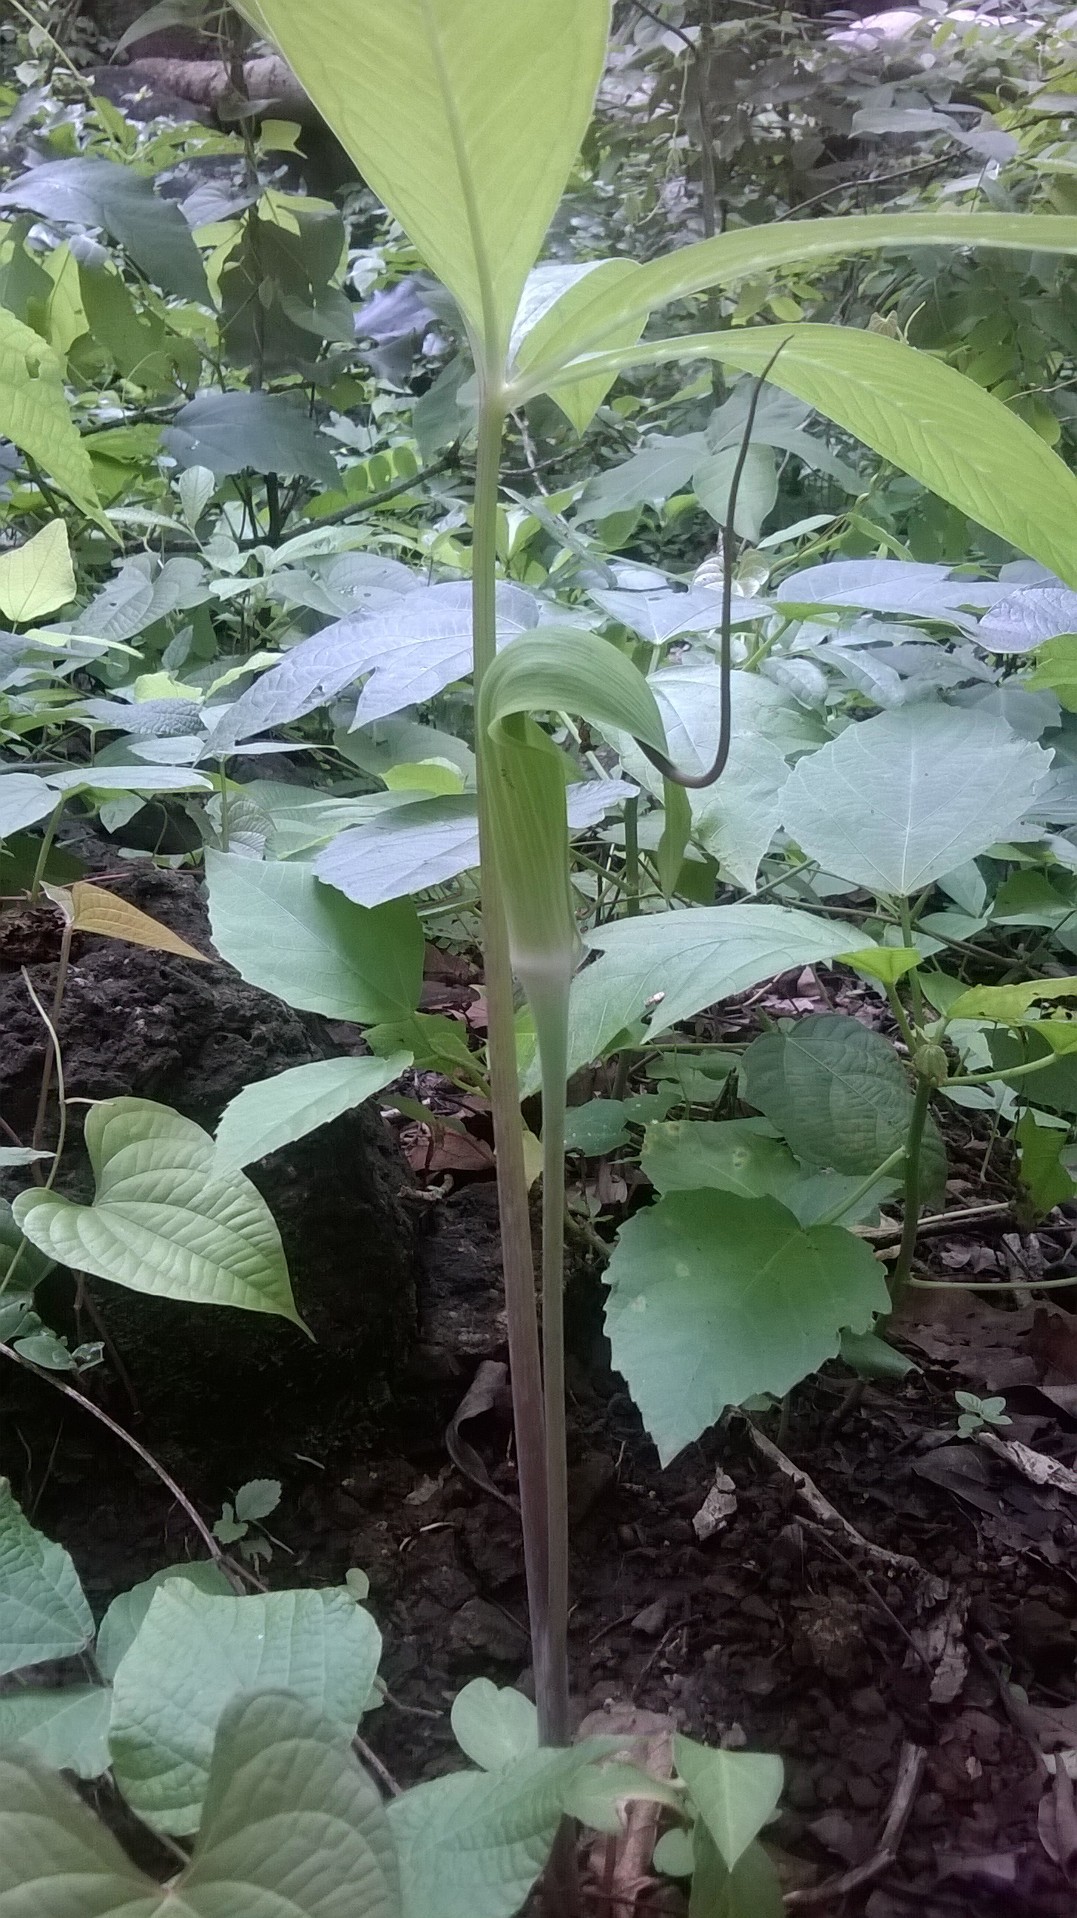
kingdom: Plantae
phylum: Tracheophyta
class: Liliopsida
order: Alismatales
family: Araceae
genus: Arisaema
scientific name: Arisaema tortuosum
